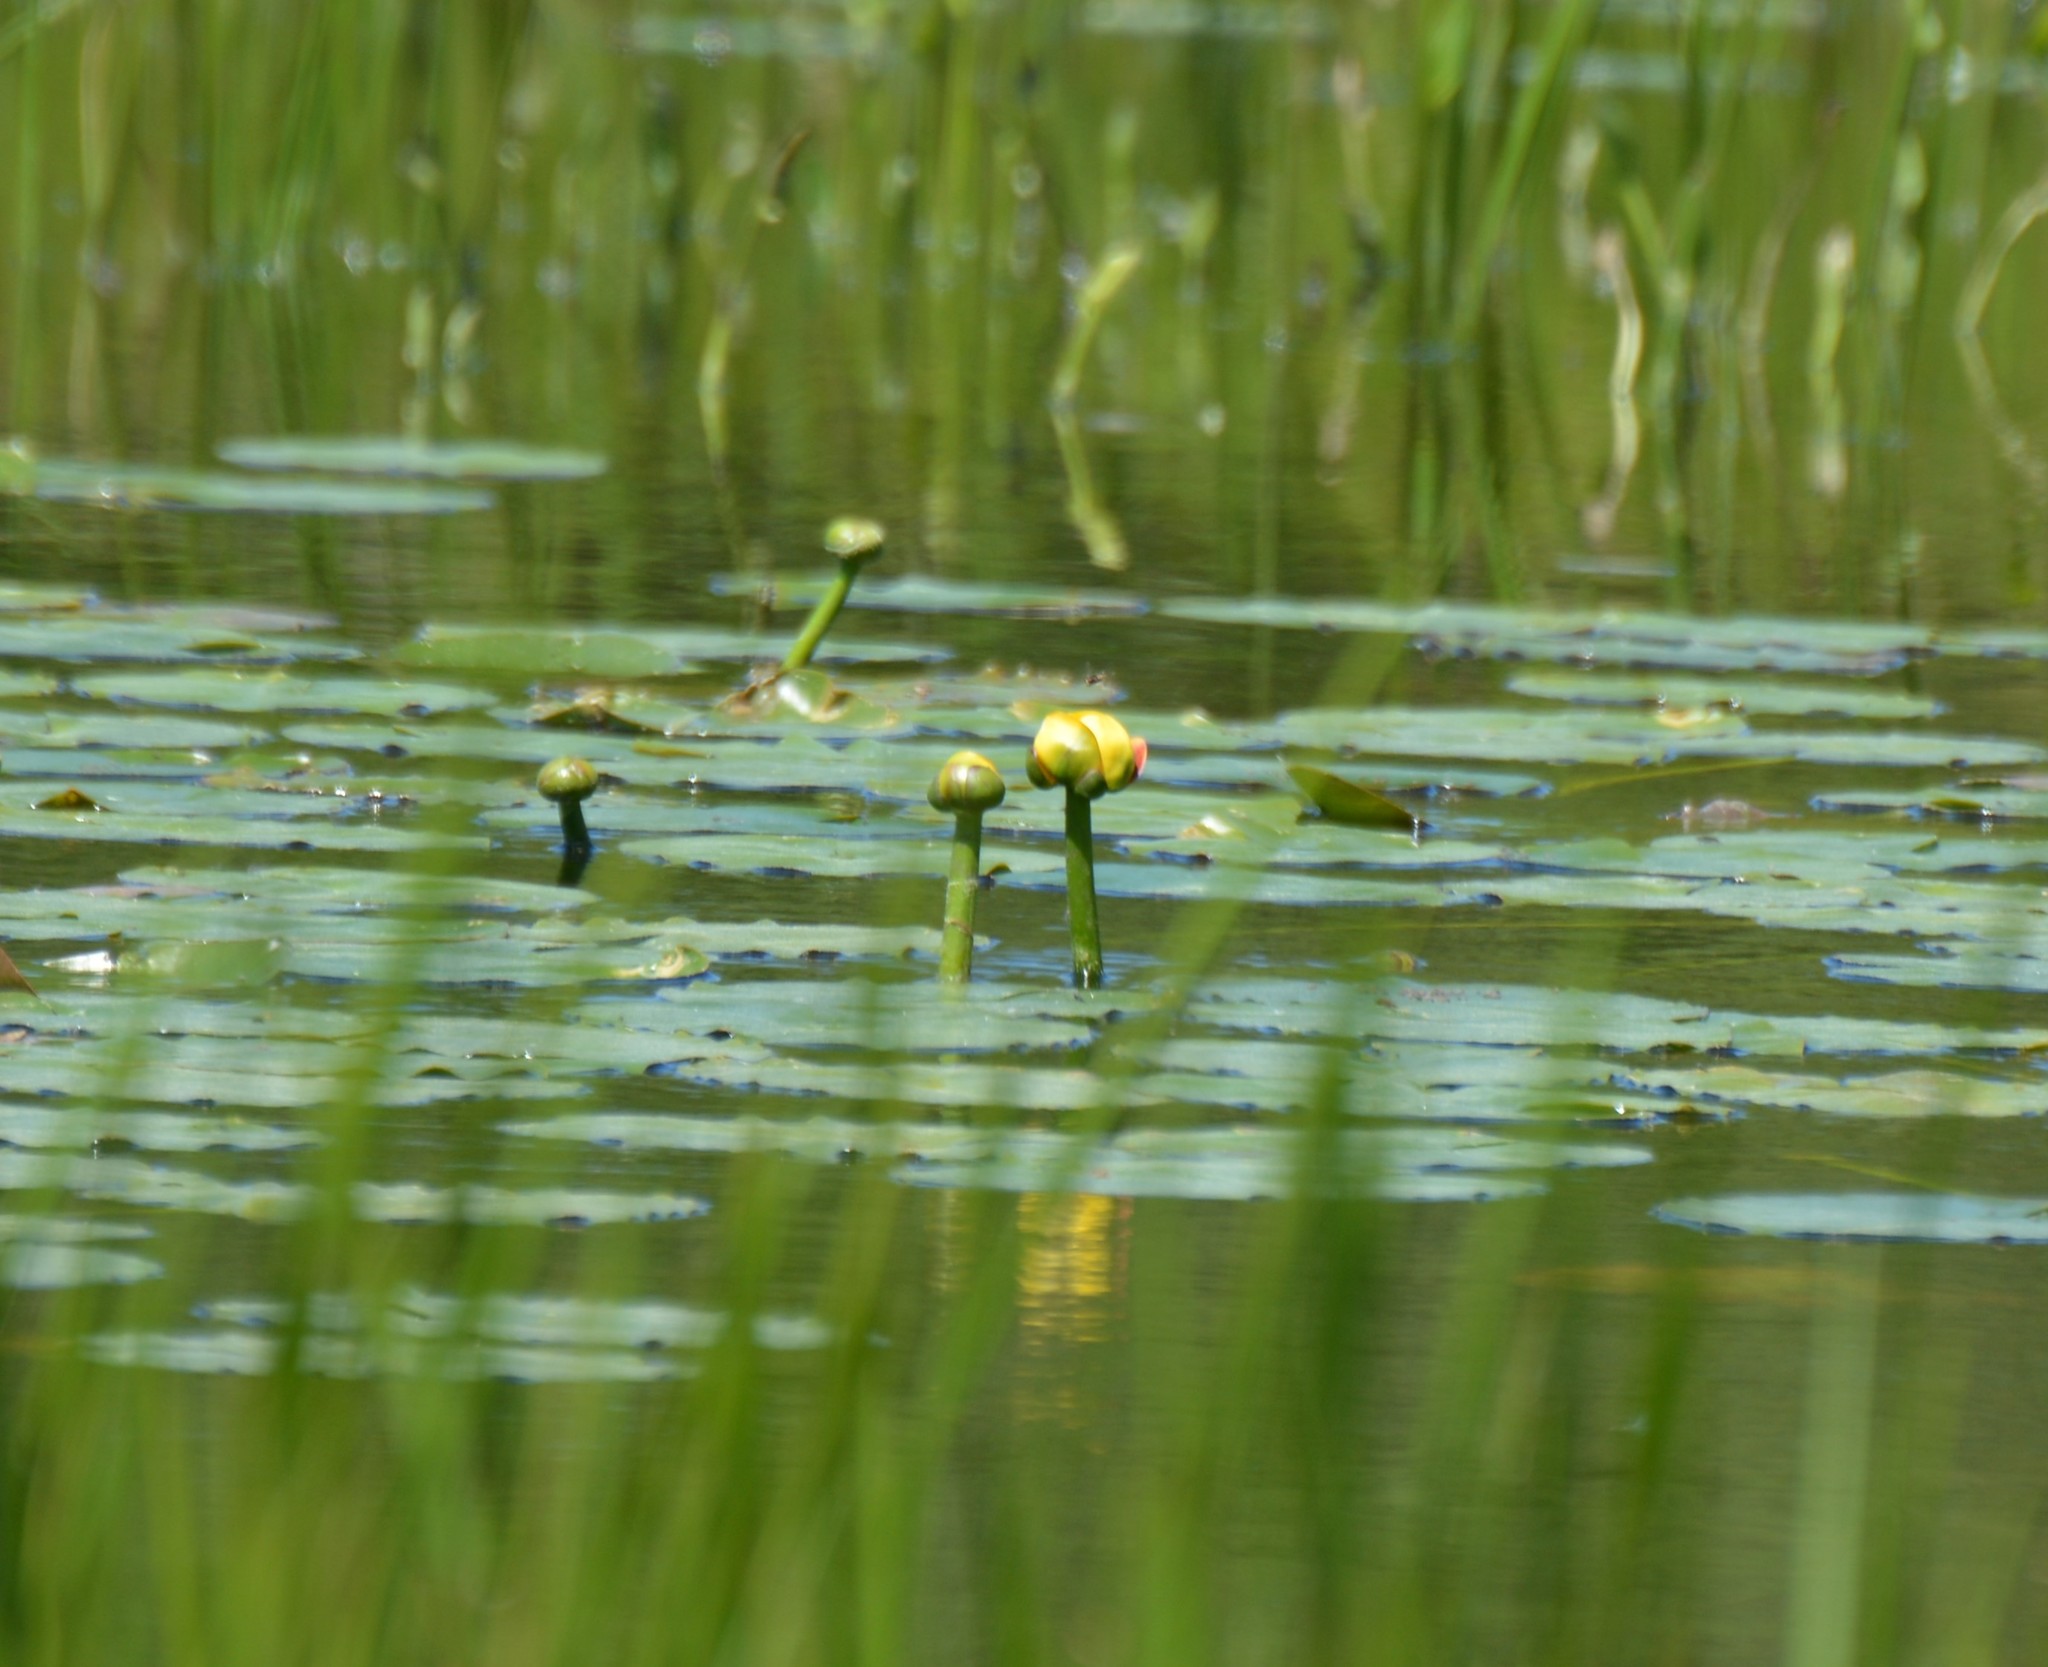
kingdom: Plantae
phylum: Tracheophyta
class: Magnoliopsida
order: Nymphaeales
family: Nymphaeaceae
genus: Nuphar
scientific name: Nuphar variegata
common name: Beaver-root
